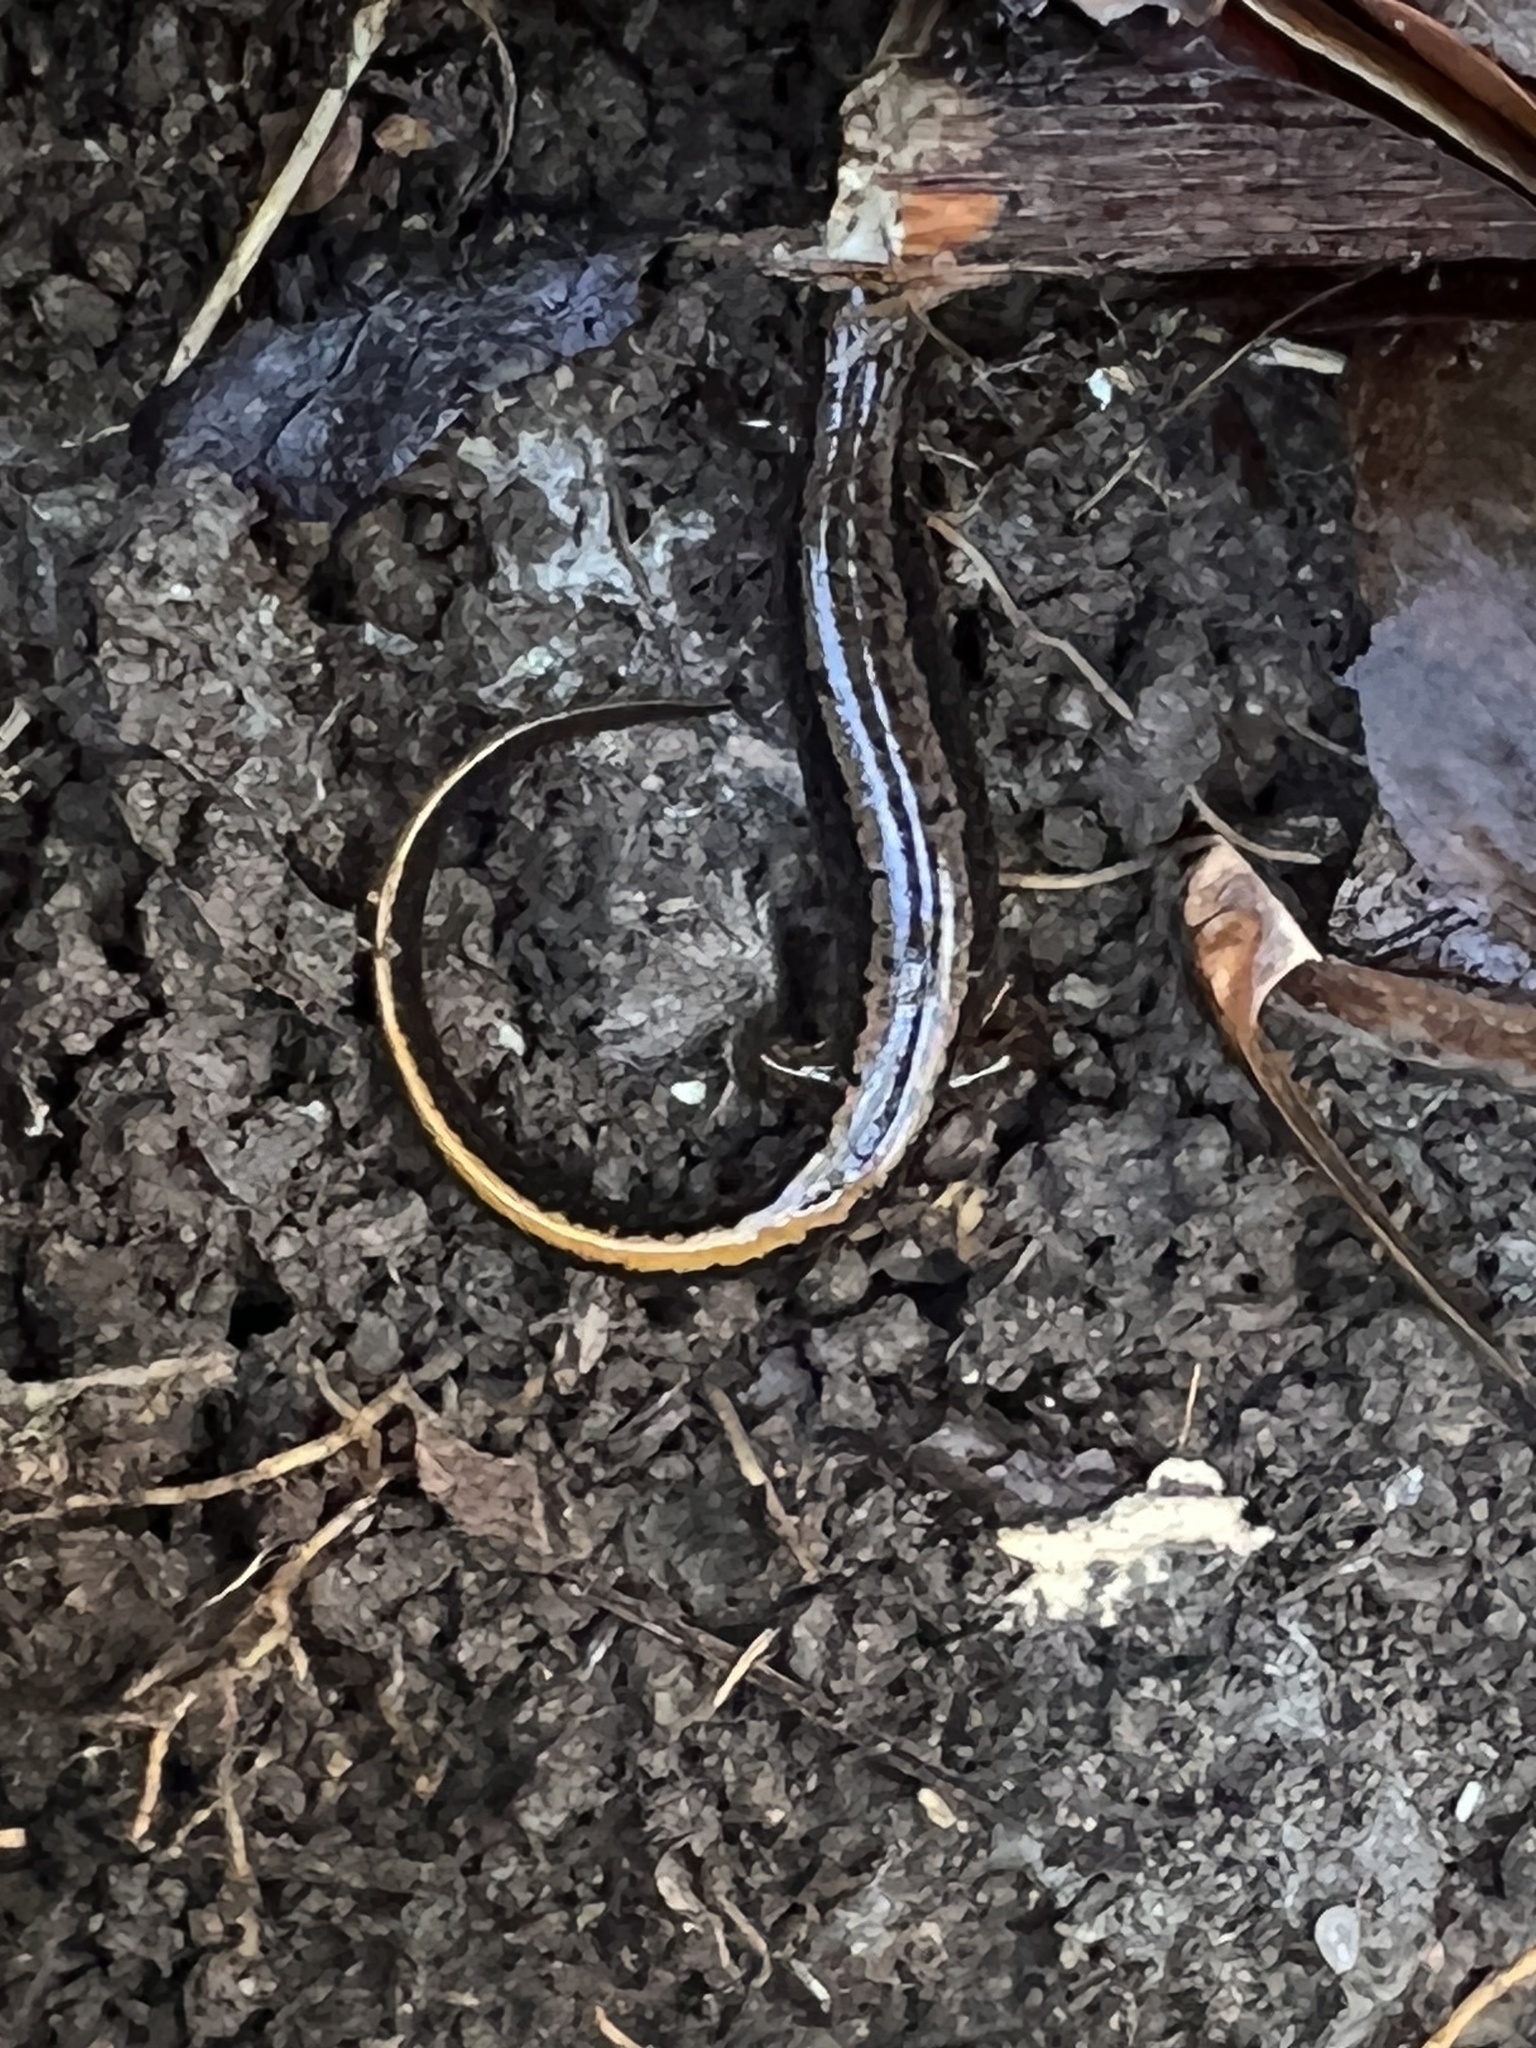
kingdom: Animalia
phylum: Chordata
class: Amphibia
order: Caudata
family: Plethodontidae
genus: Eurycea
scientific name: Eurycea bislineata
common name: Northern two-lined salamander
